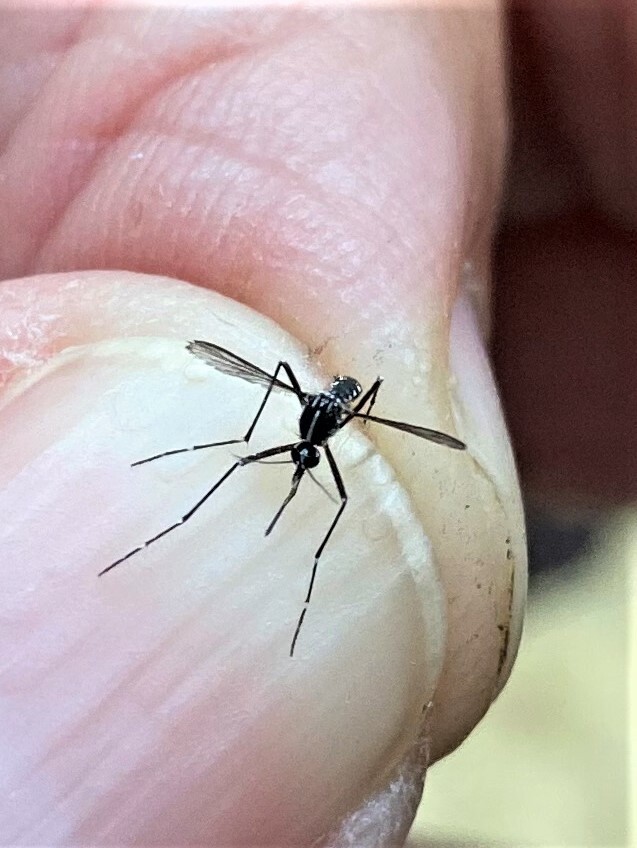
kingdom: Animalia
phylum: Arthropoda
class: Insecta
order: Diptera
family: Culicidae
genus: Aedes
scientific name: Aedes albopictus
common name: Tiger mosquito
